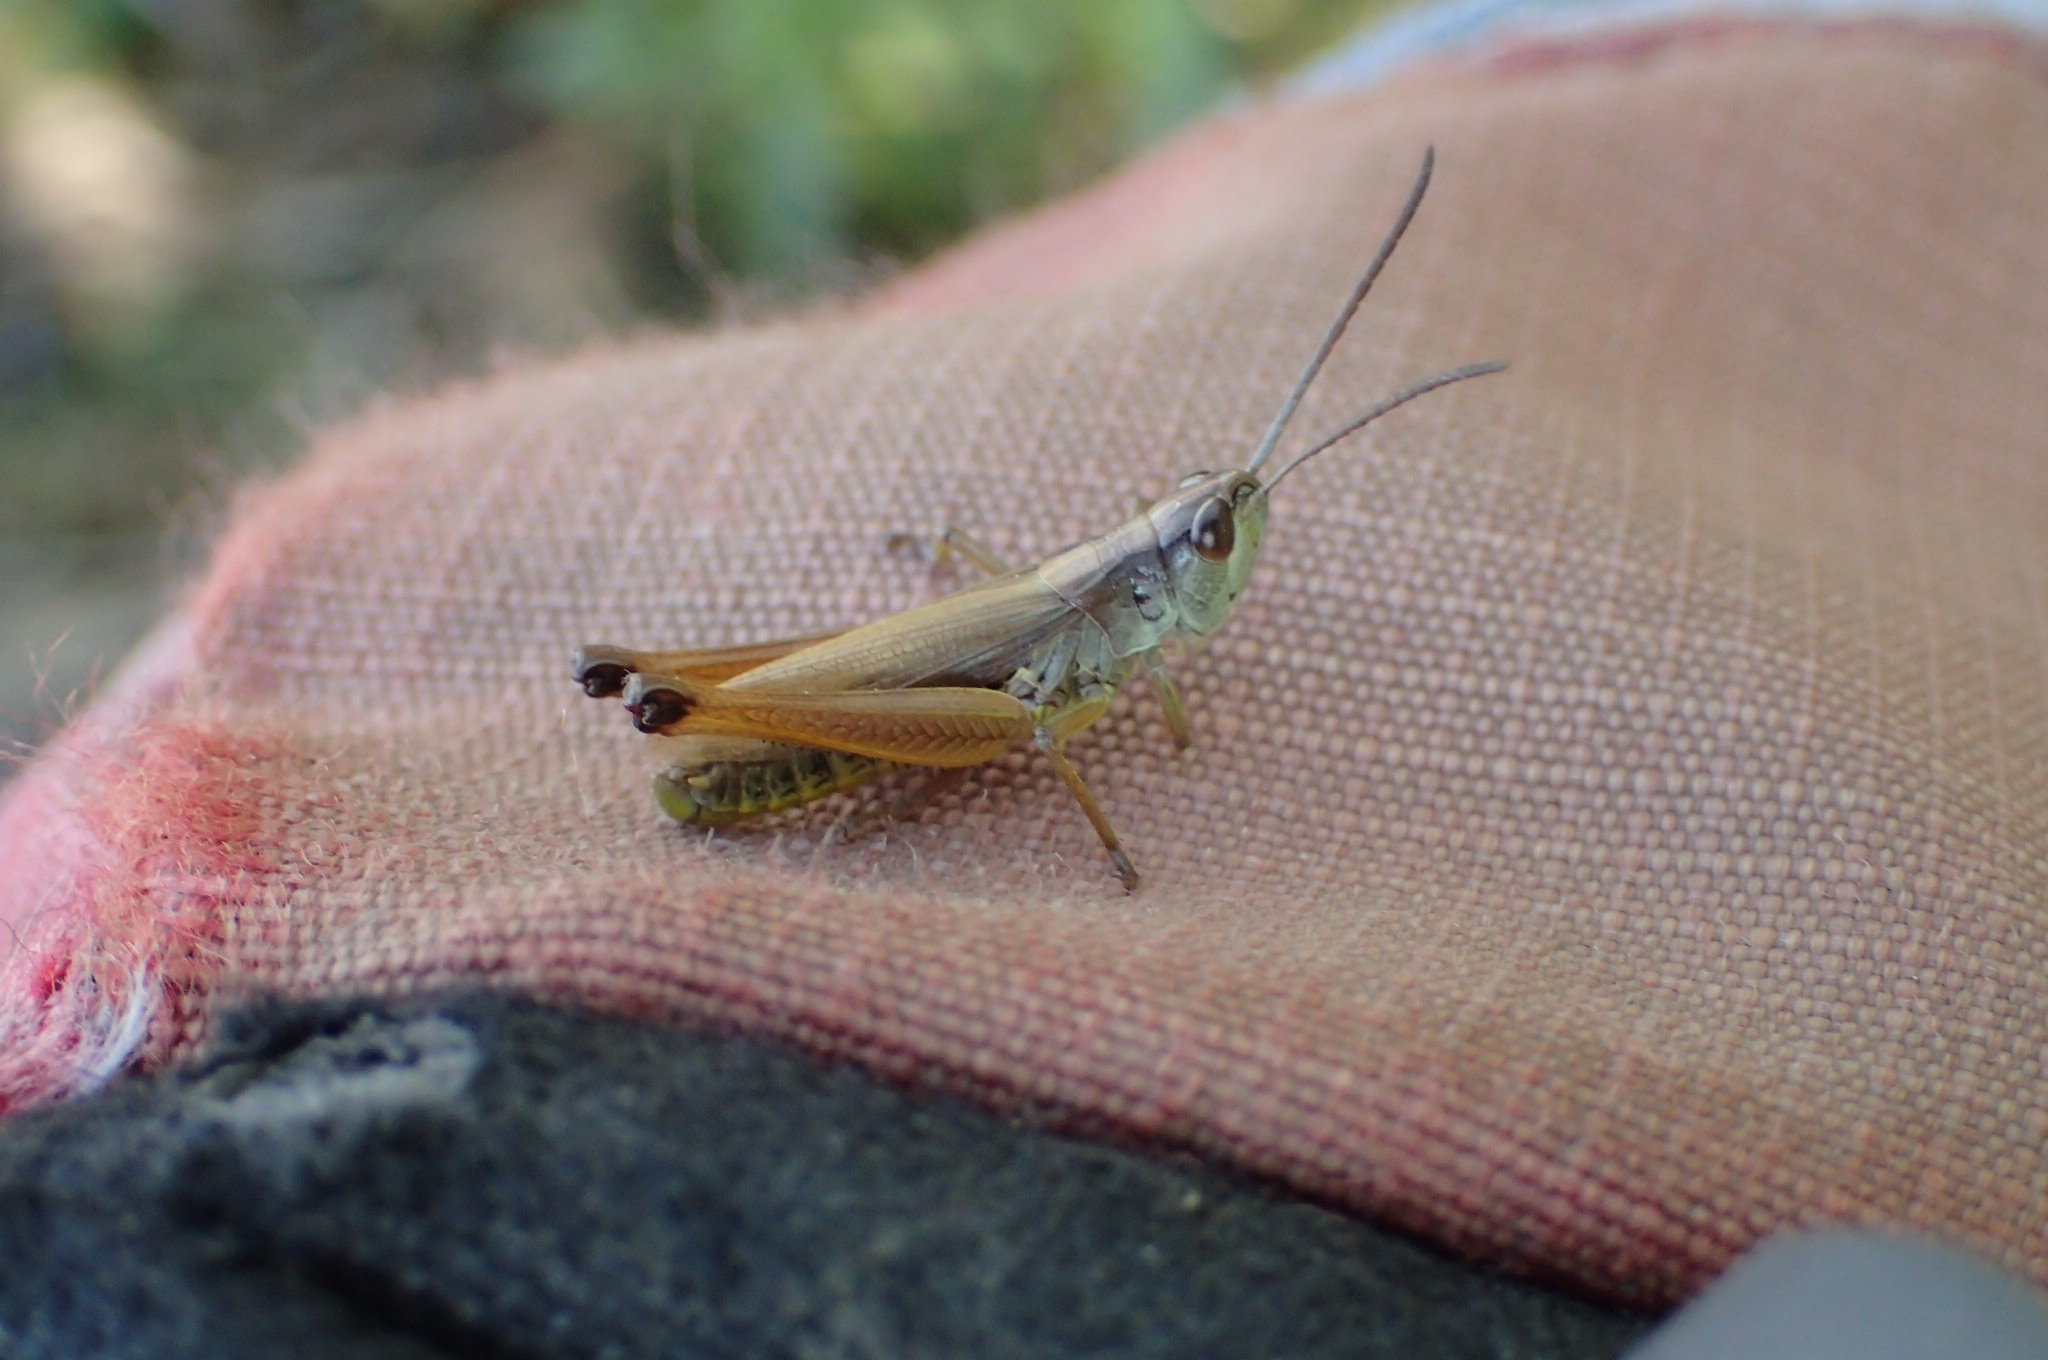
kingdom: Animalia
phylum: Arthropoda
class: Insecta
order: Orthoptera
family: Acrididae
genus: Pseudochorthippus
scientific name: Pseudochorthippus curtipennis
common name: Marsh meadow grasshopper
